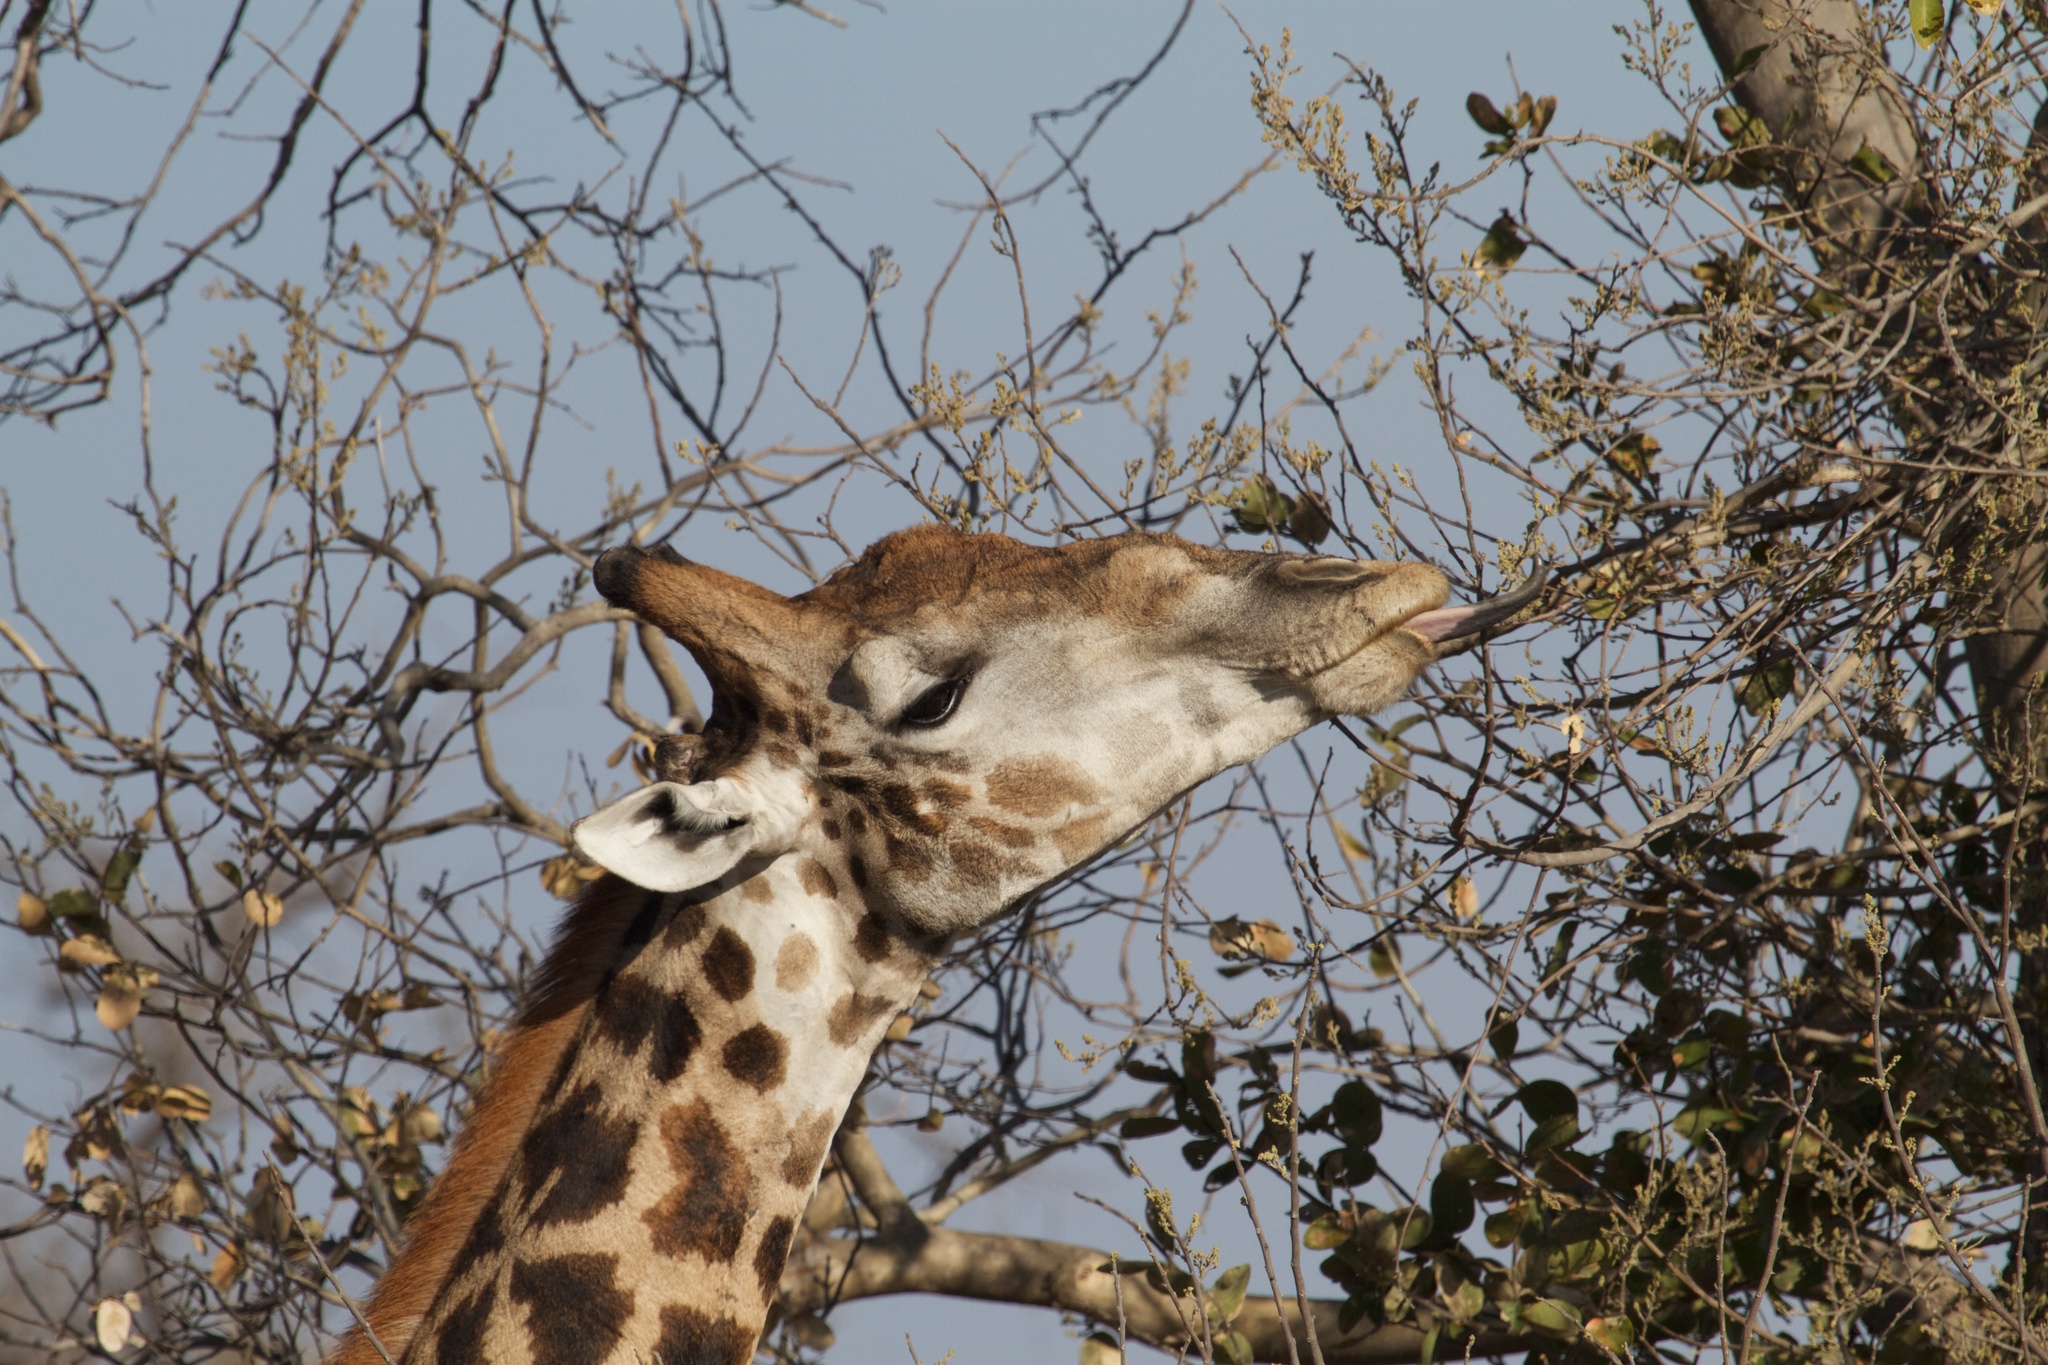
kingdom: Animalia
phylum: Chordata
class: Mammalia
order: Artiodactyla
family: Giraffidae
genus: Giraffa
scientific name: Giraffa giraffa
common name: Southern giraffe
